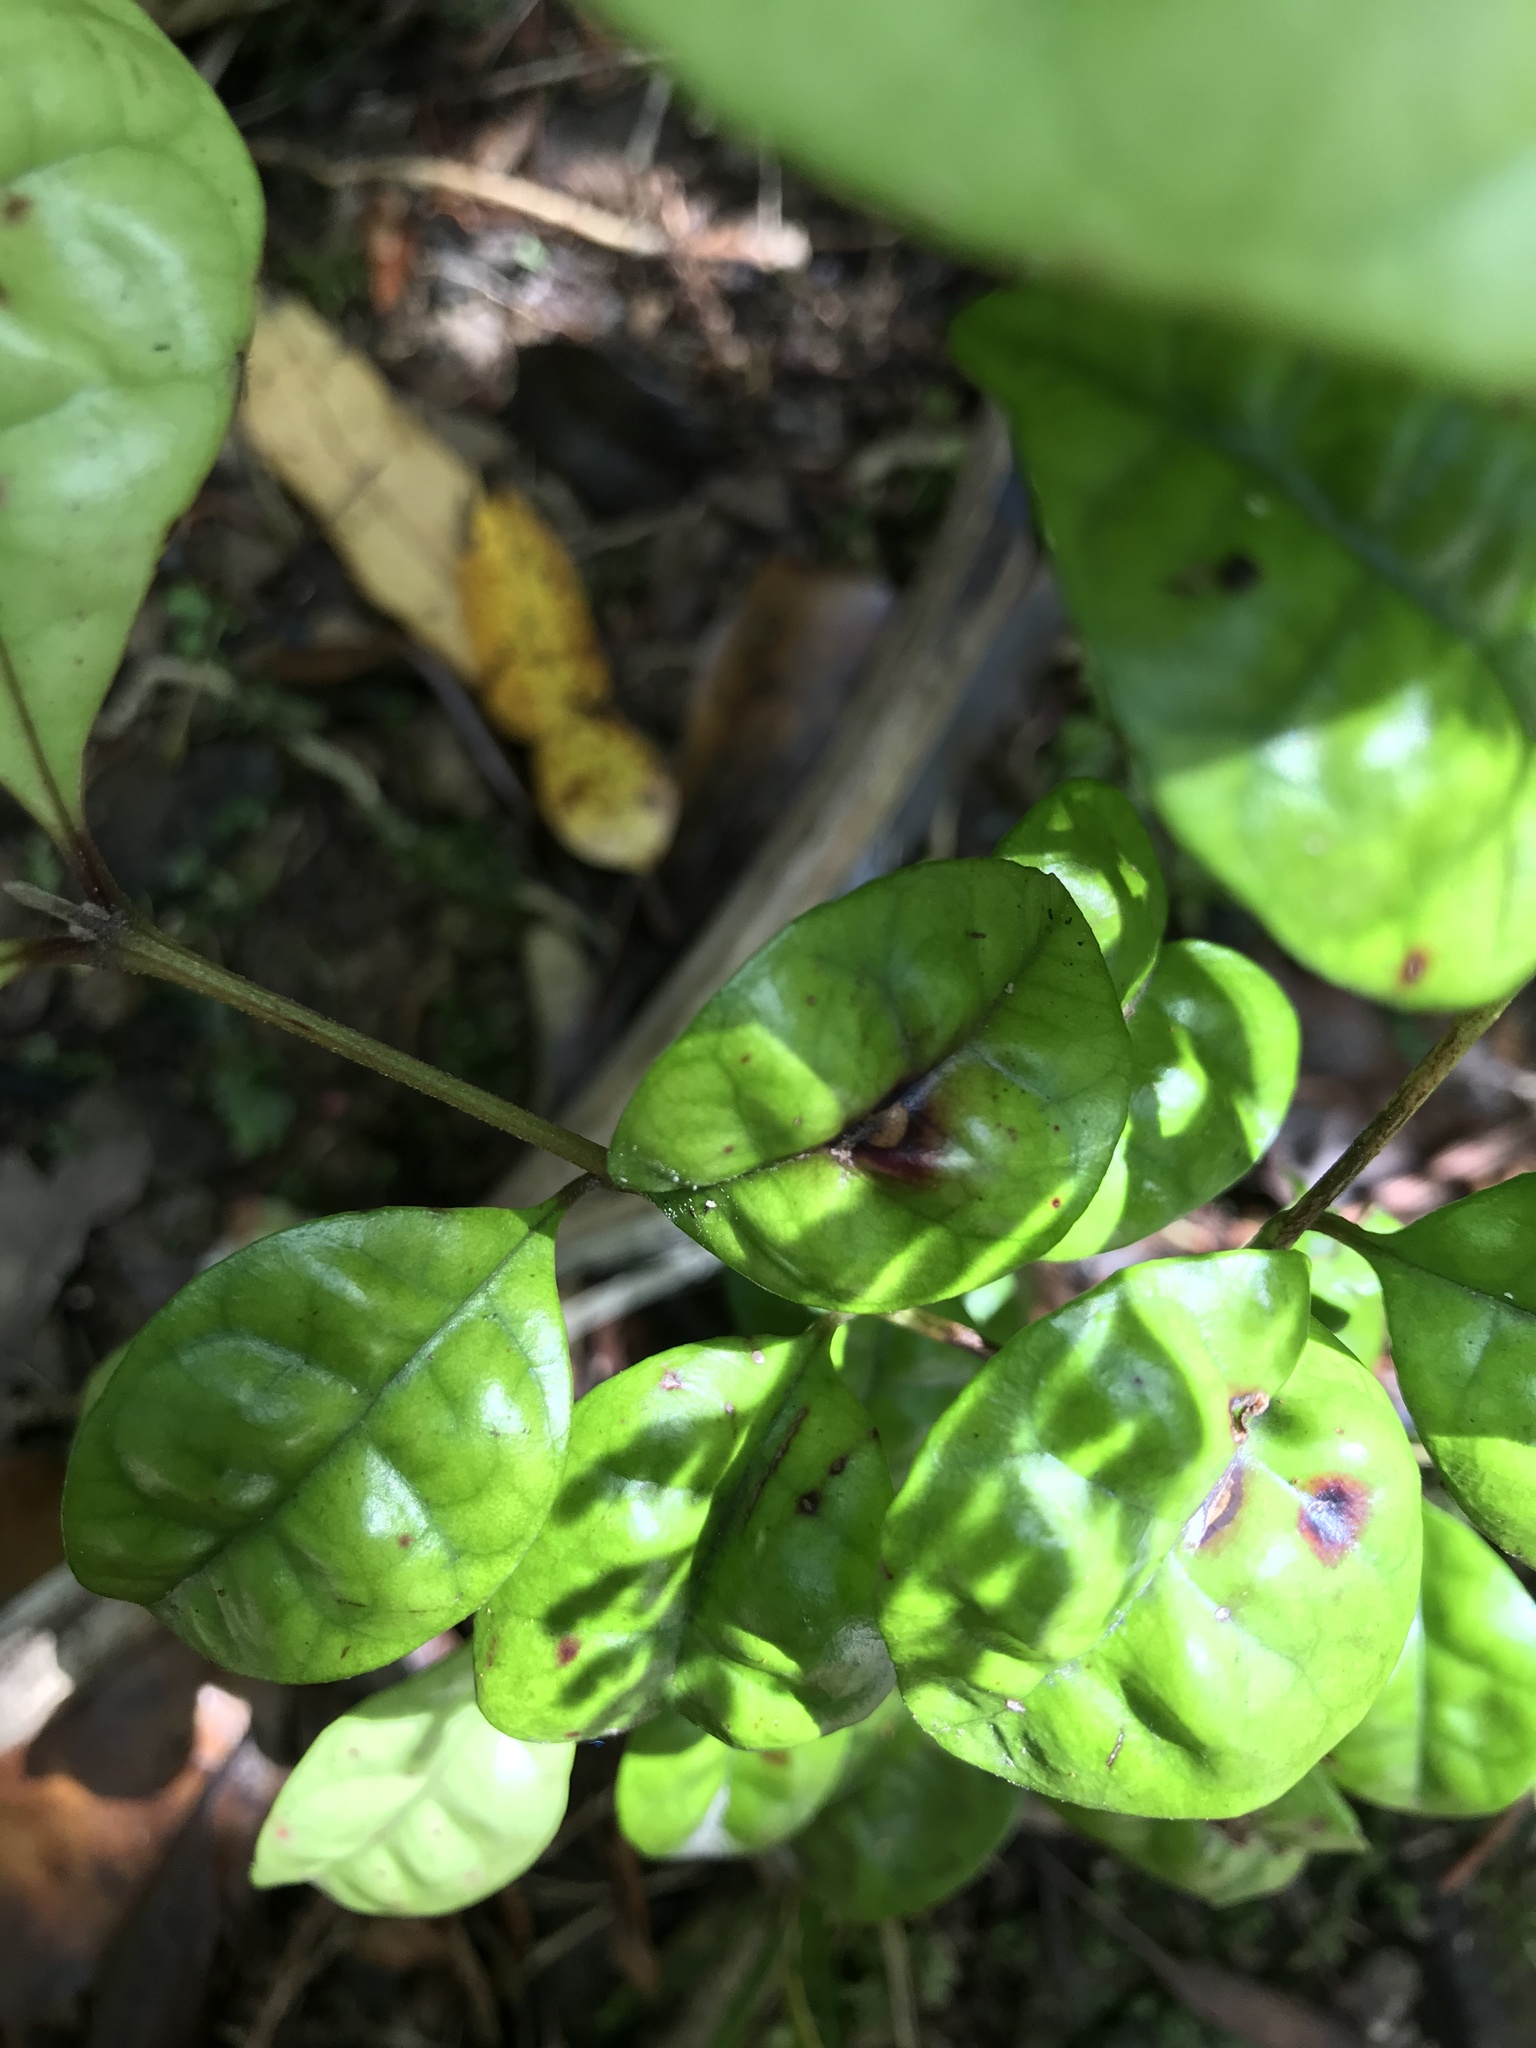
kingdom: Fungi
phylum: Basidiomycota
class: Pucciniomycetes
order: Pucciniales
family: Sphaerophragmiaceae
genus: Austropuccinia
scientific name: Austropuccinia psidii
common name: Myrtle rust
